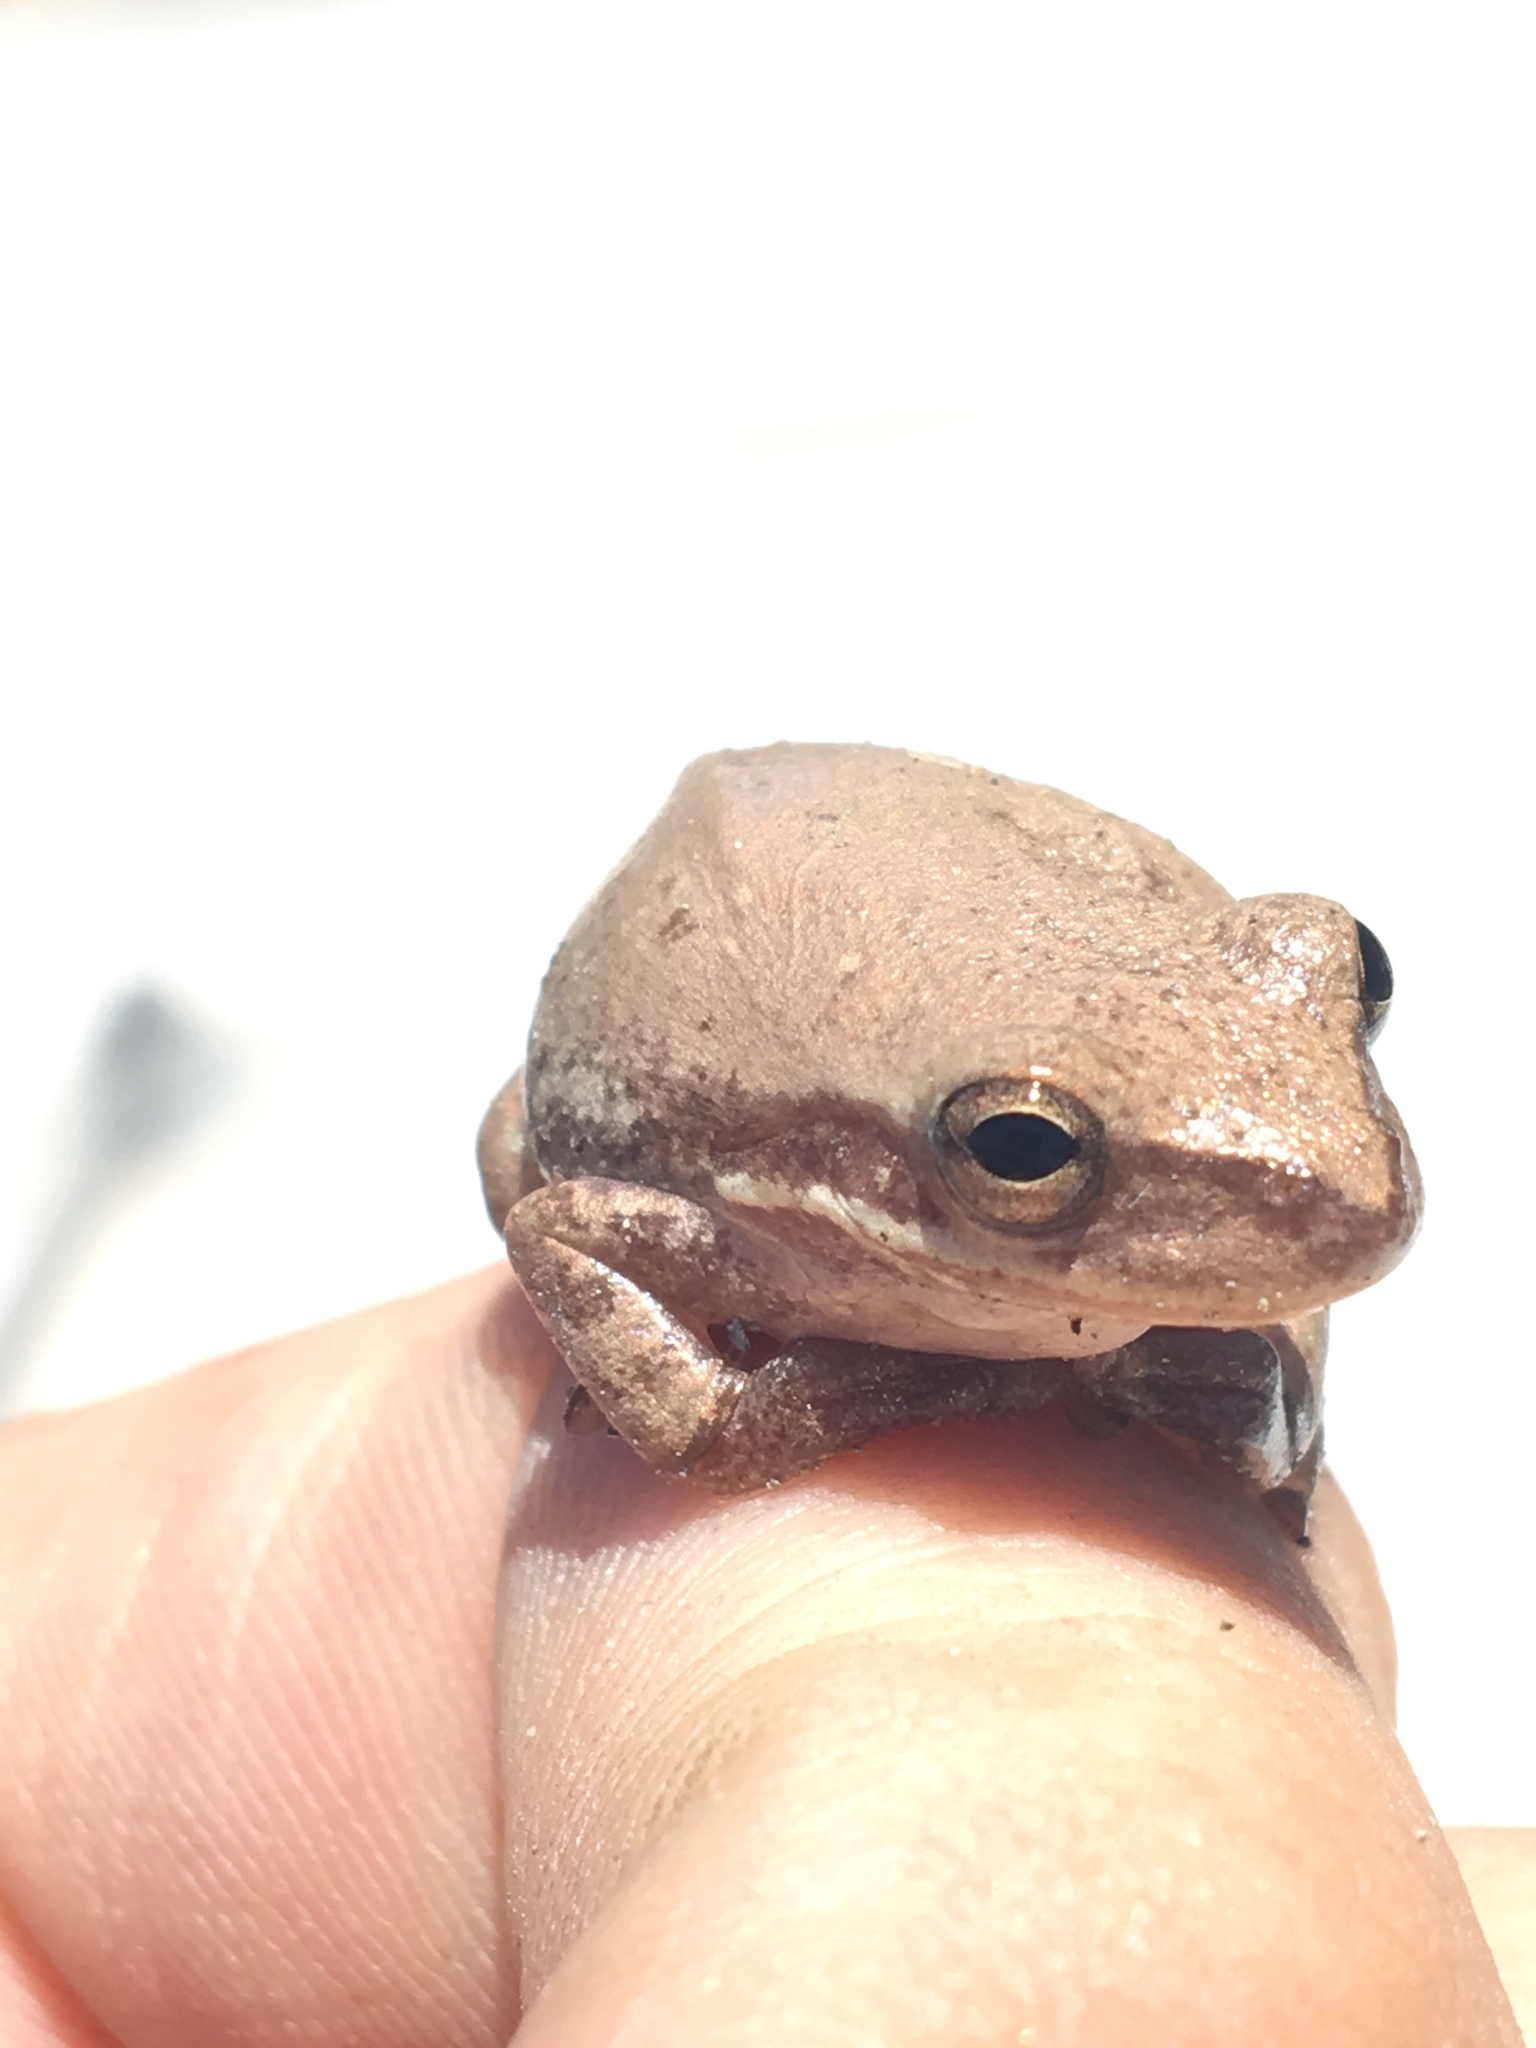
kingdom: Animalia
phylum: Chordata
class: Amphibia
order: Anura
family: Hylidae
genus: Dryophytes
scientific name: Dryophytes squirellus
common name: Squirrel treefrog
